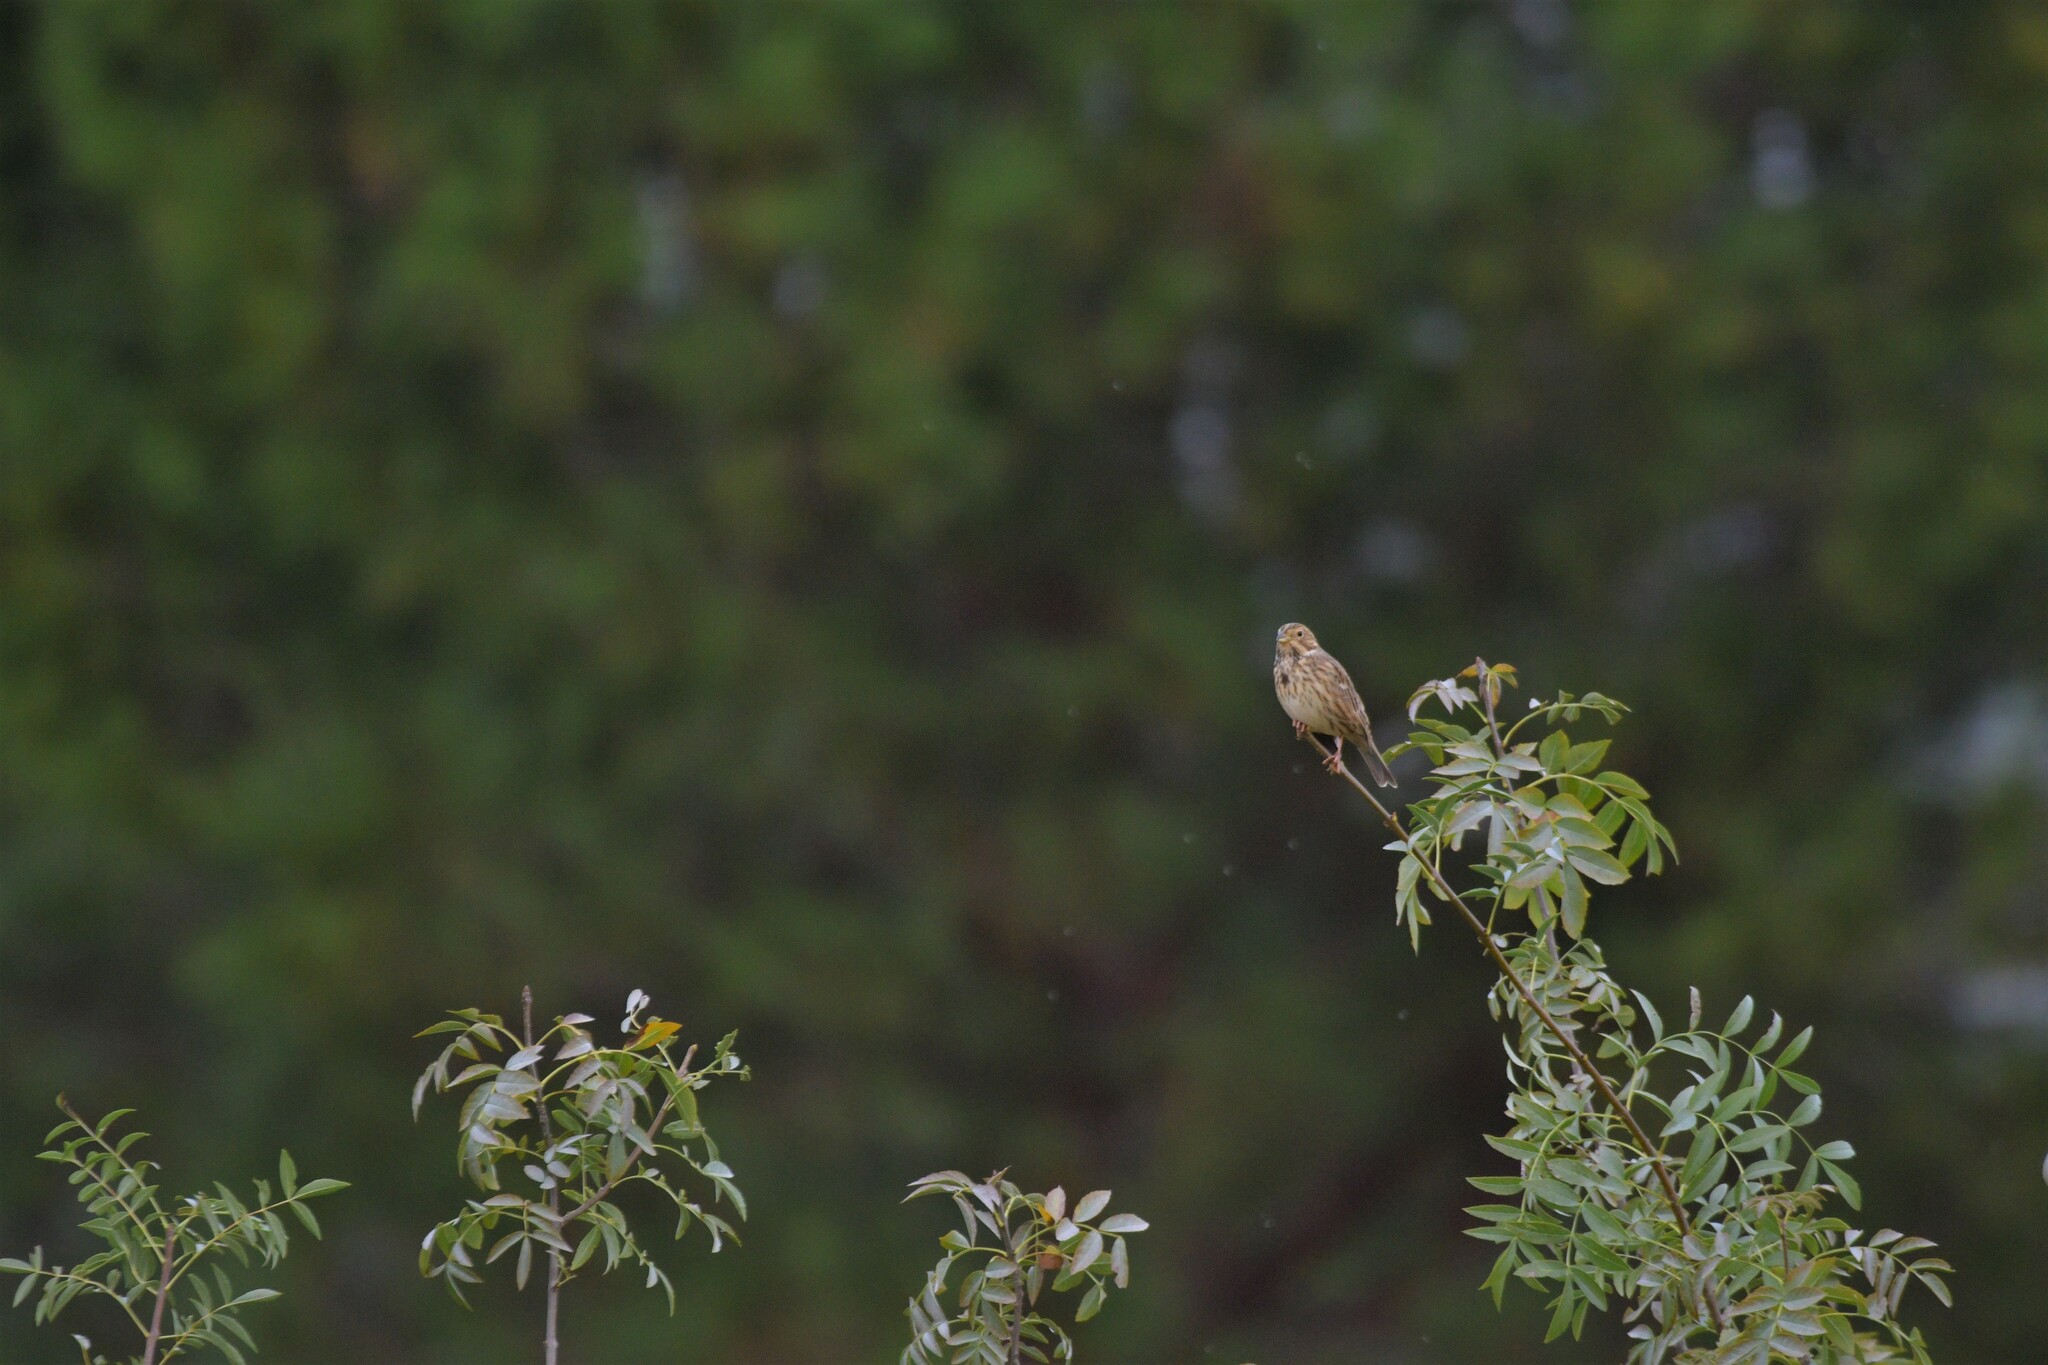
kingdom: Animalia
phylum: Chordata
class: Aves
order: Passeriformes
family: Emberizidae
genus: Emberiza
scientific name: Emberiza calandra
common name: Corn bunting
